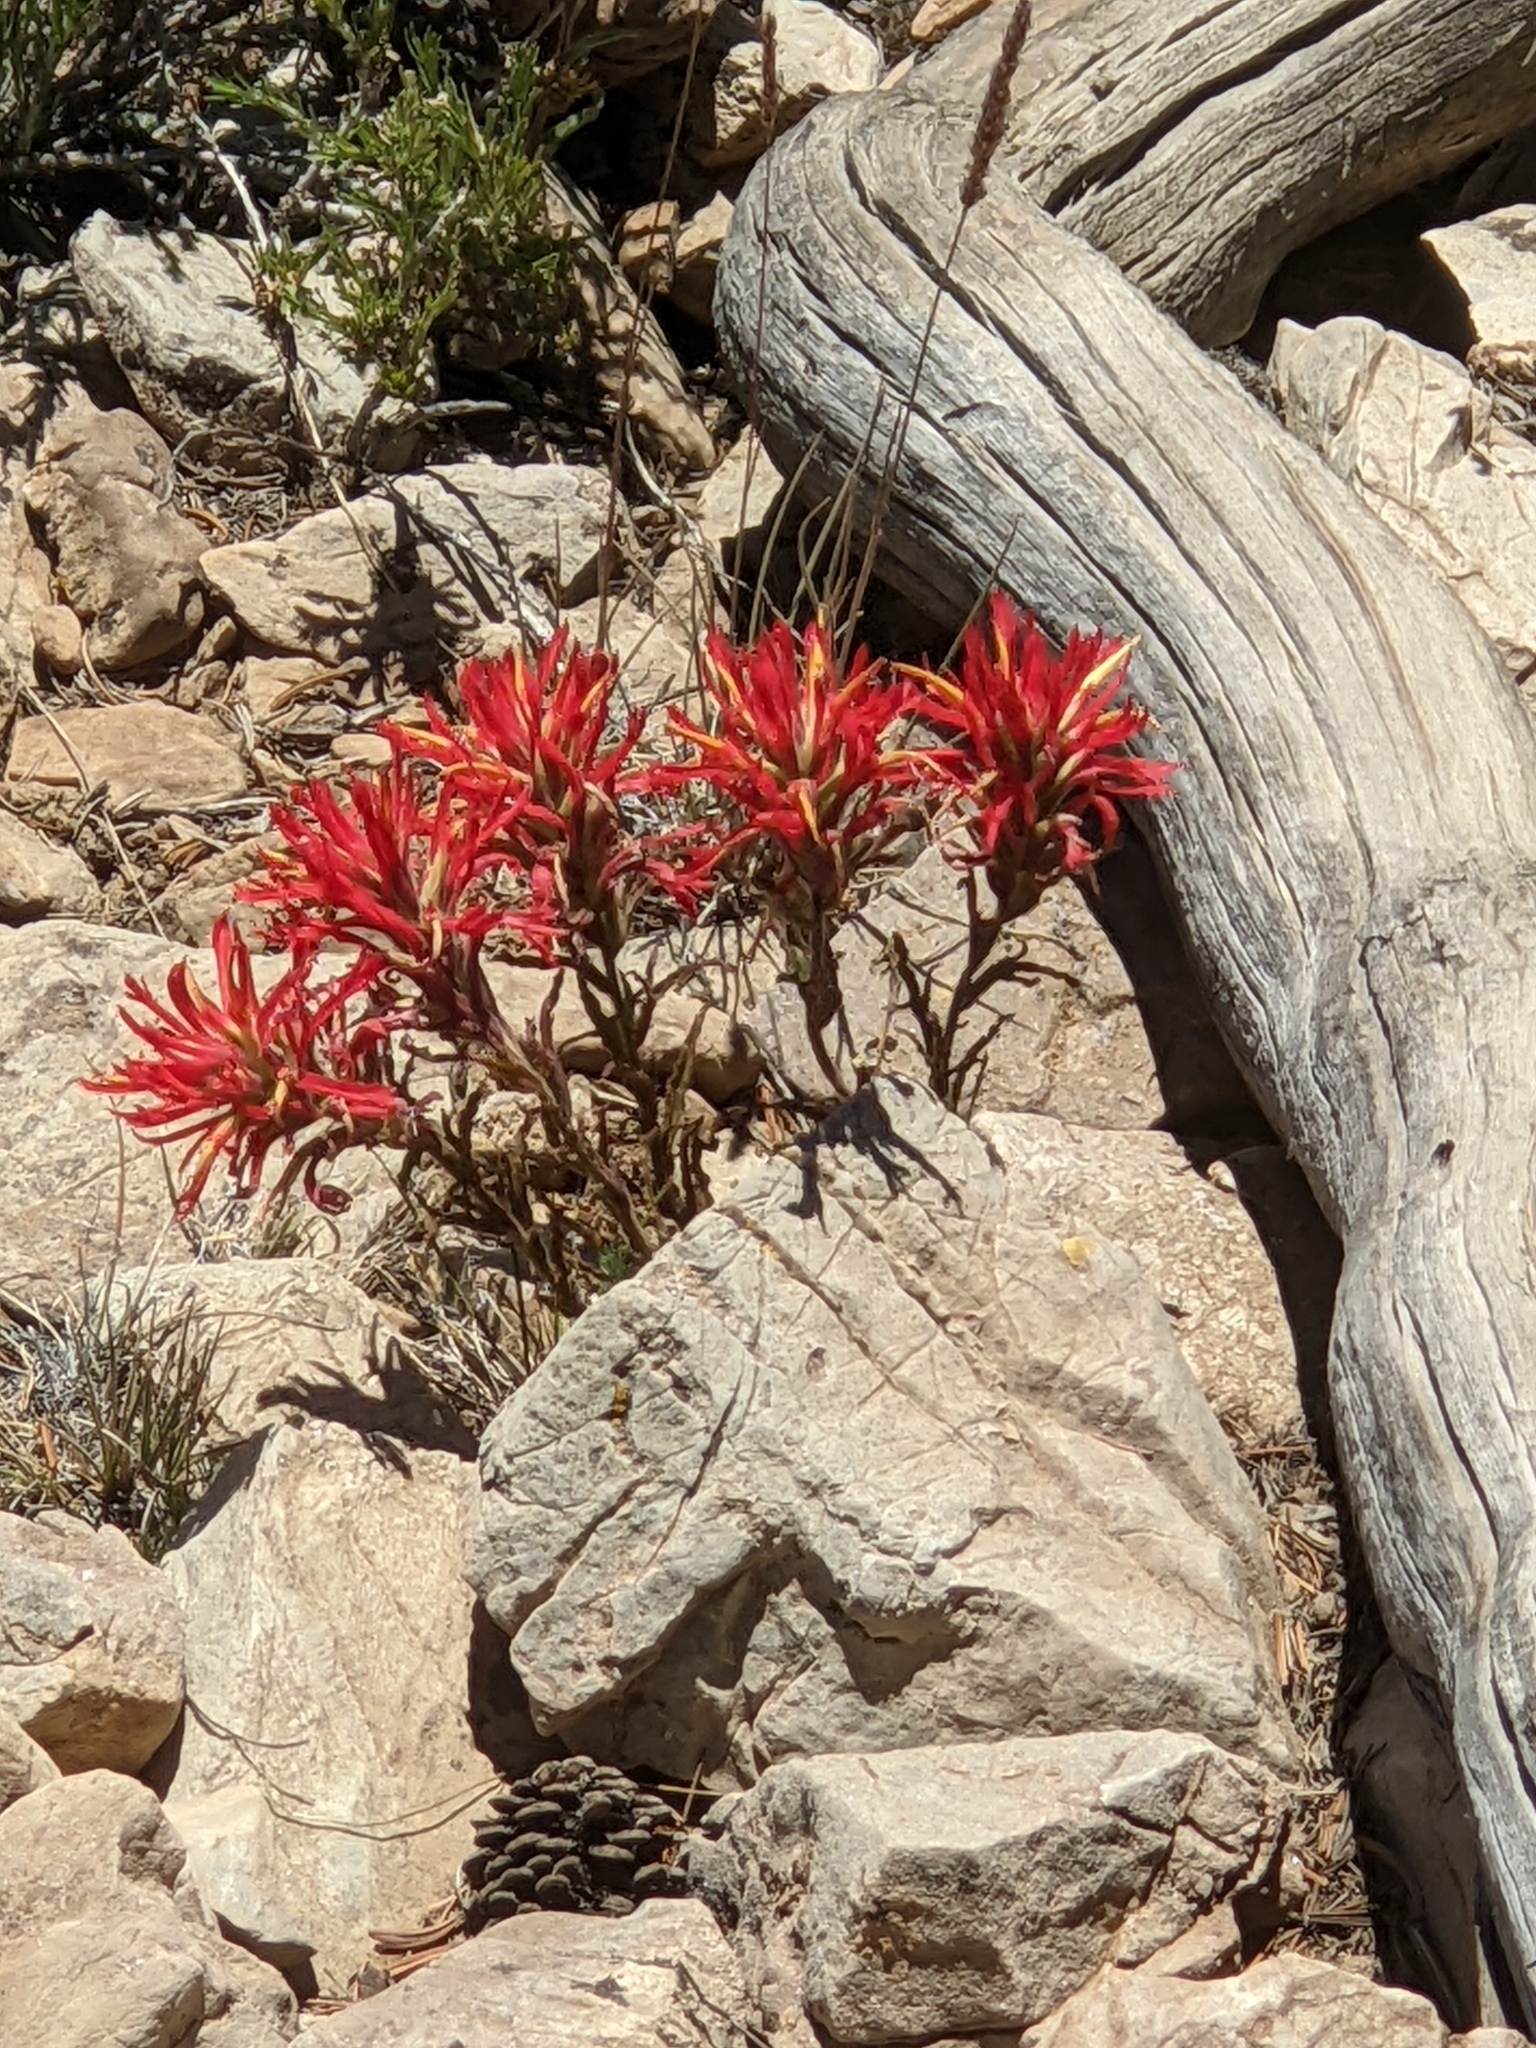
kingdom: Plantae
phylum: Tracheophyta
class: Magnoliopsida
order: Lamiales
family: Orobanchaceae
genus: Castilleja
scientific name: Castilleja applegatei
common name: Wavy-leaf paintbrush
